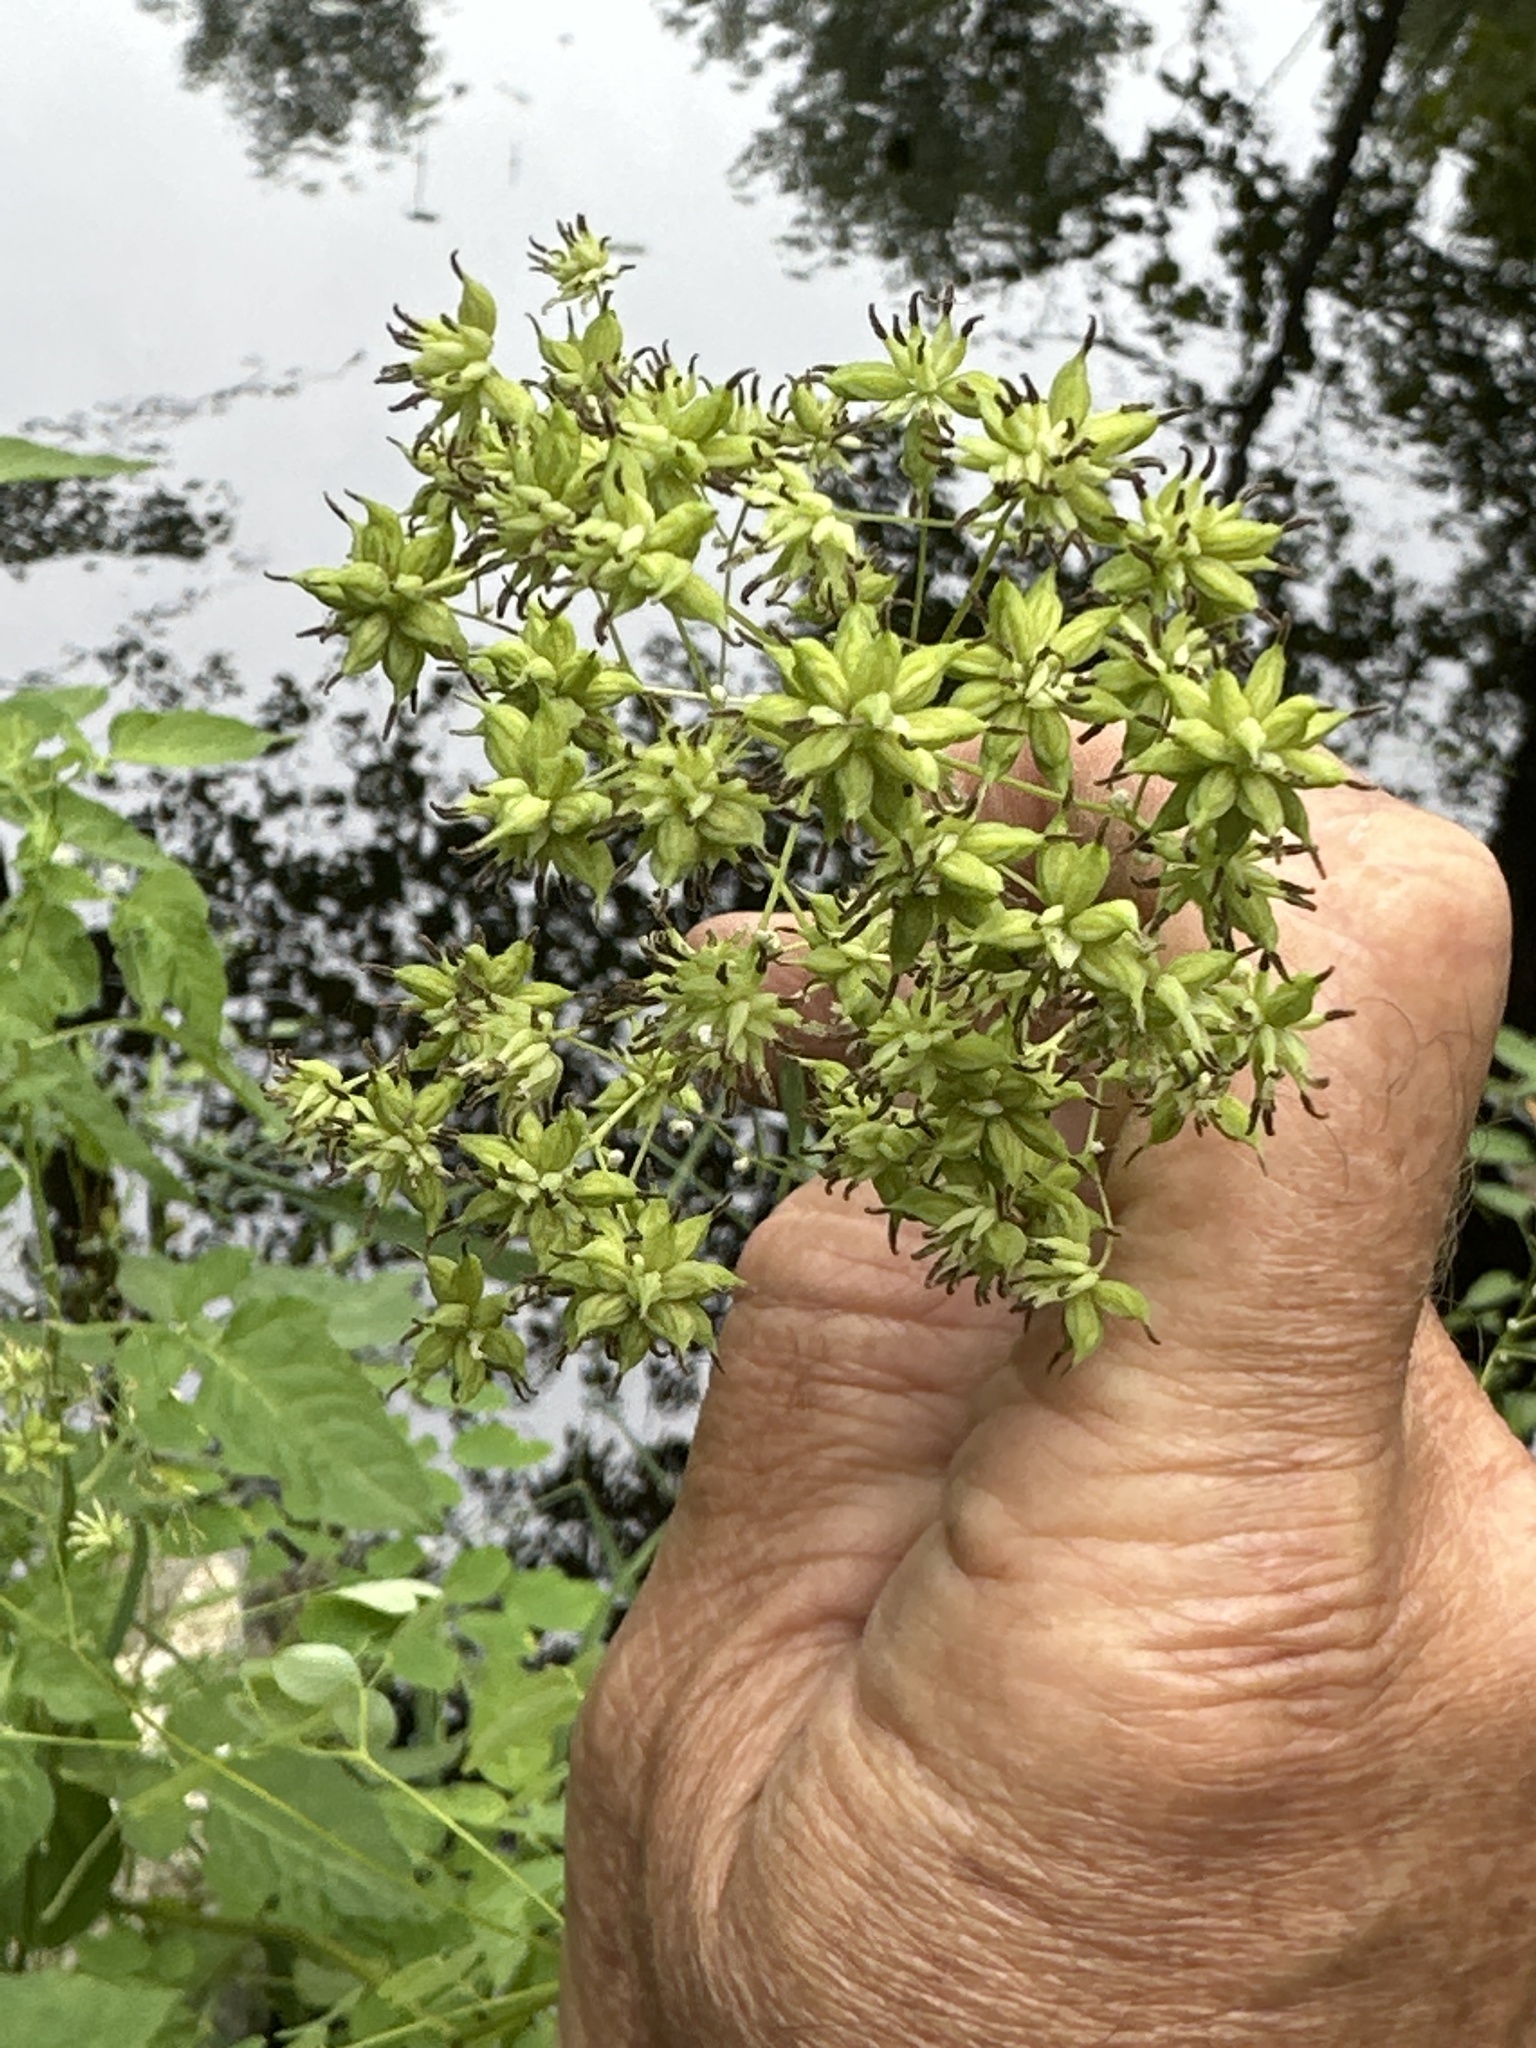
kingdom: Plantae
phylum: Tracheophyta
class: Magnoliopsida
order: Ranunculales
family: Ranunculaceae
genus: Thalictrum
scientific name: Thalictrum pubescens
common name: King-of-the-meadow
